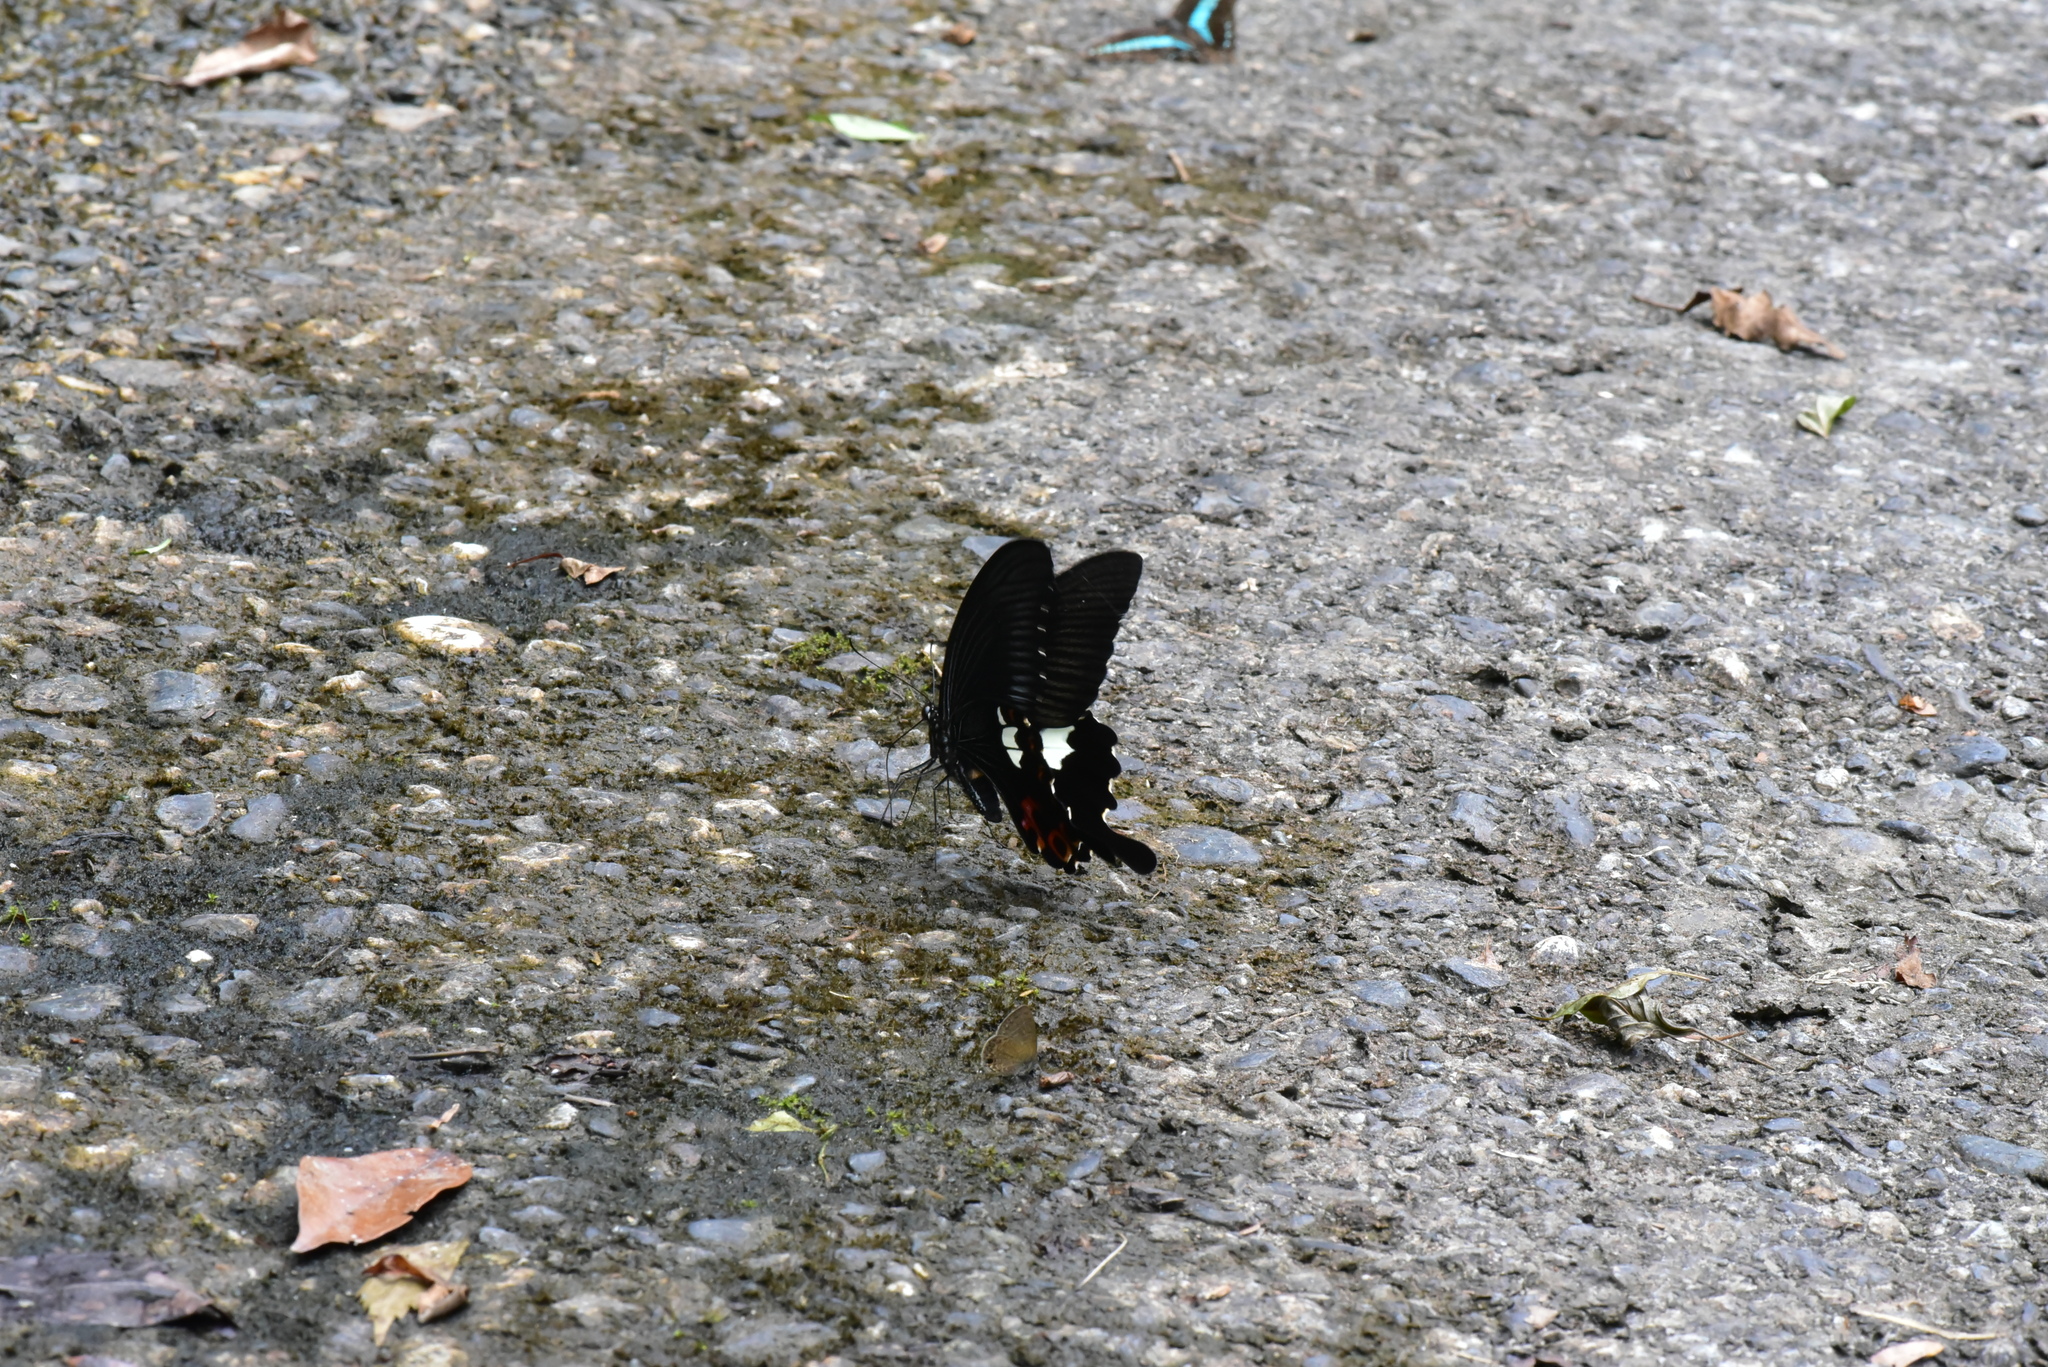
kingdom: Animalia
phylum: Arthropoda
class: Insecta
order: Lepidoptera
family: Papilionidae
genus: Papilio
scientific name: Papilio helenus
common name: Red helen
